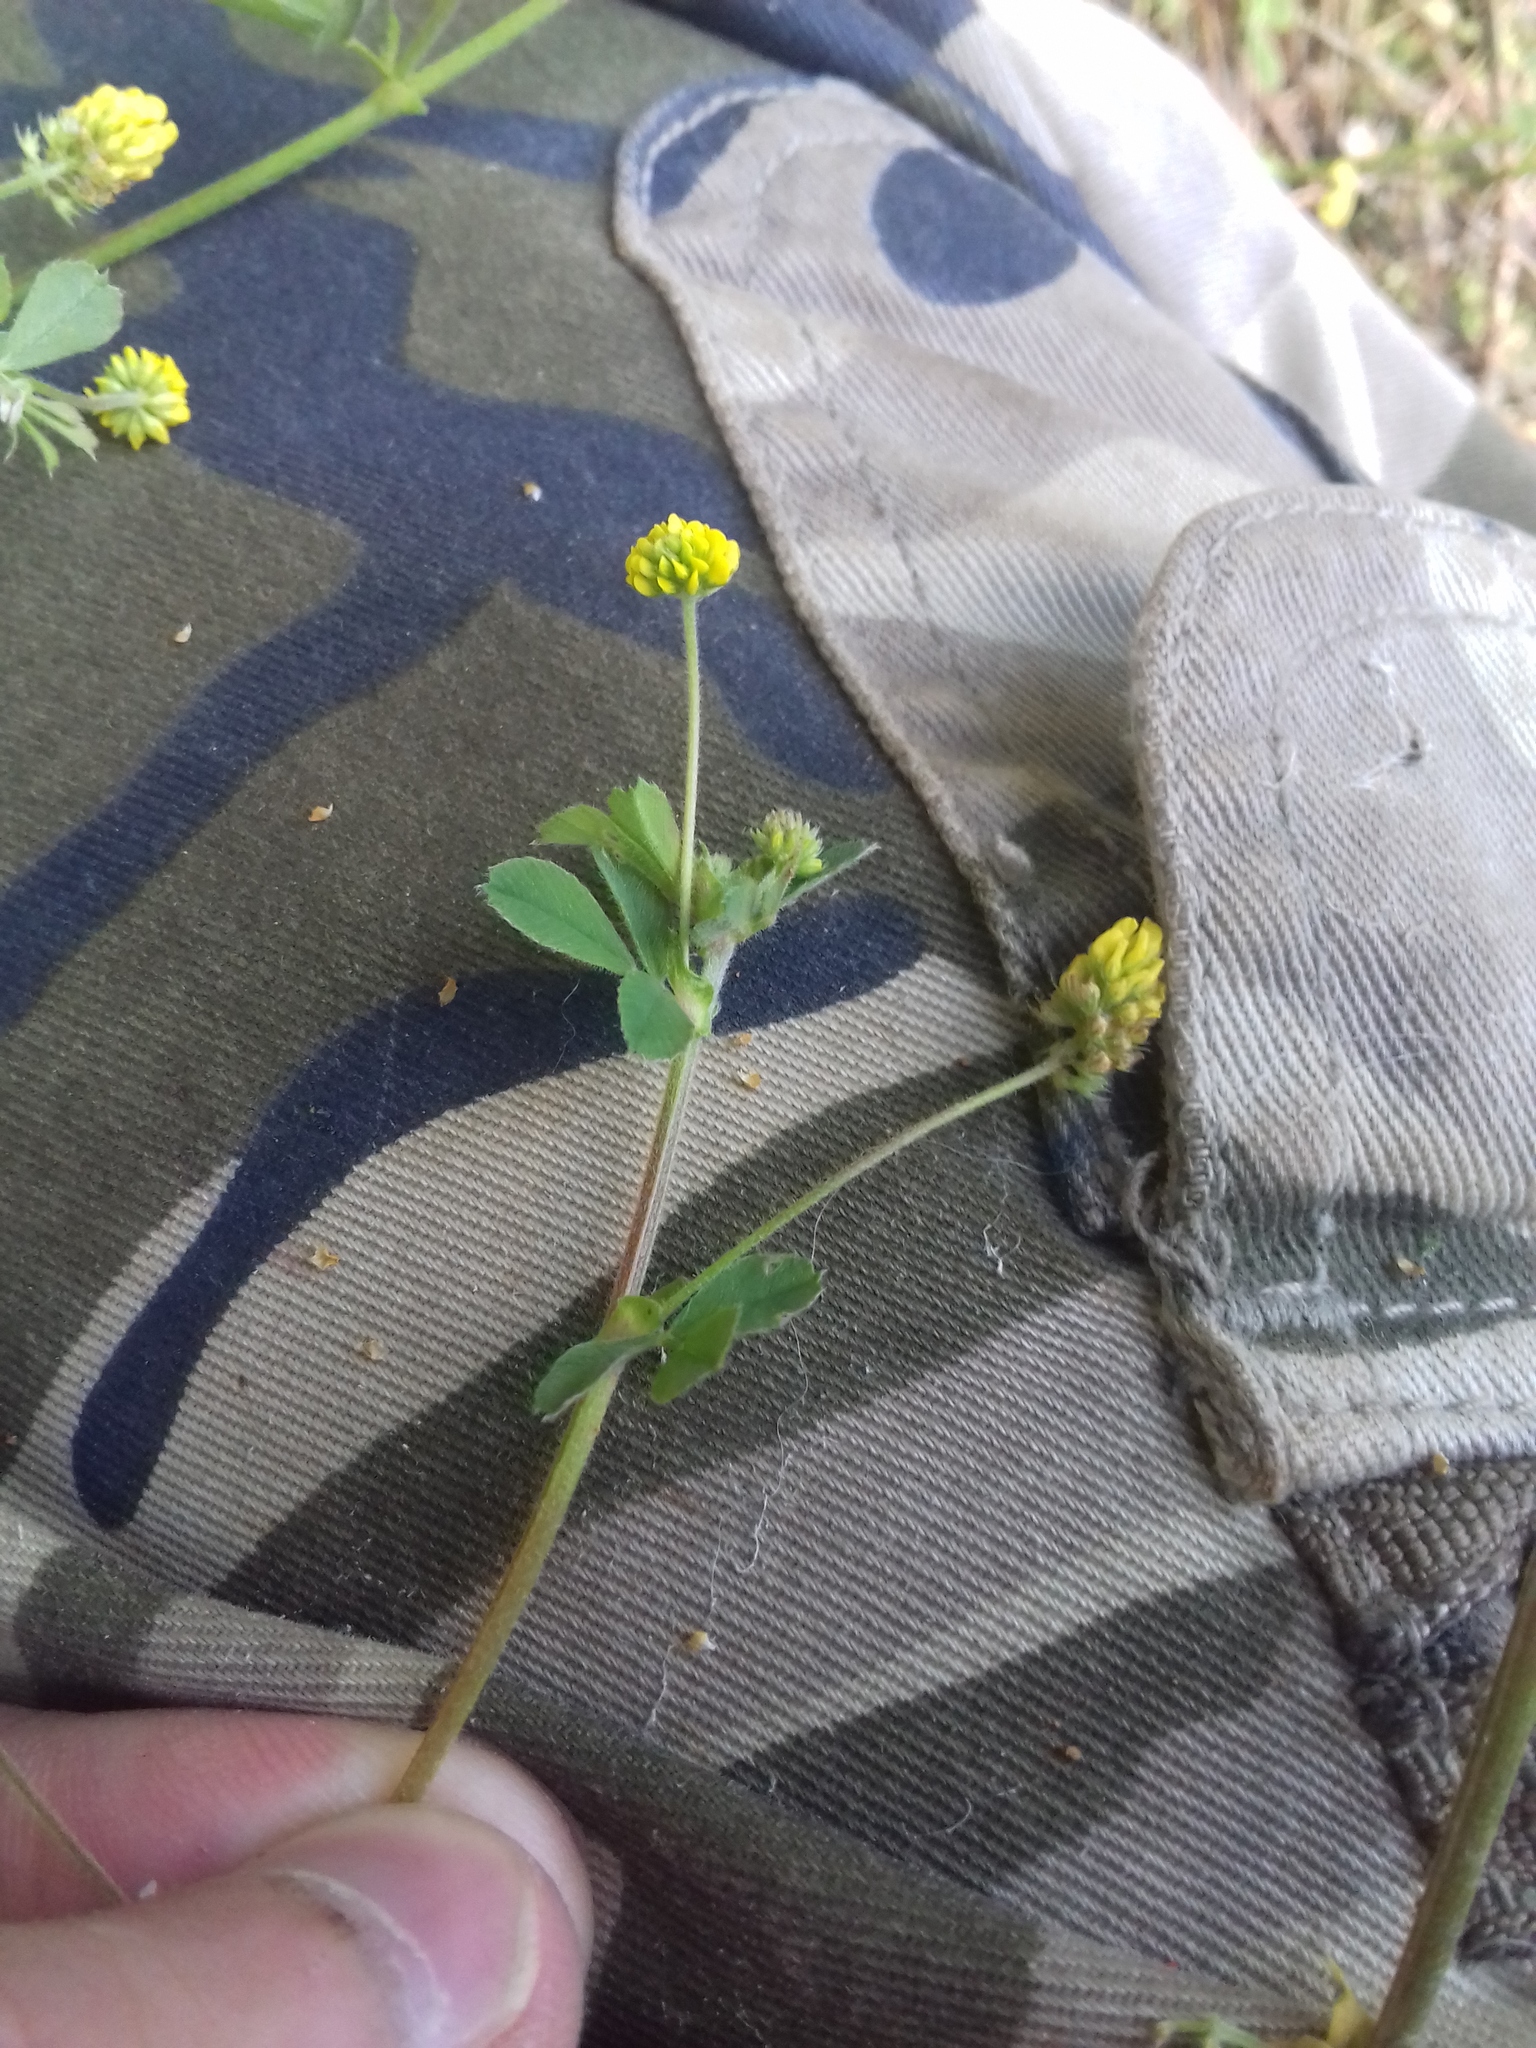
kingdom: Plantae
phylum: Tracheophyta
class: Magnoliopsida
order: Fabales
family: Fabaceae
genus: Medicago
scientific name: Medicago lupulina
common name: Black medick
